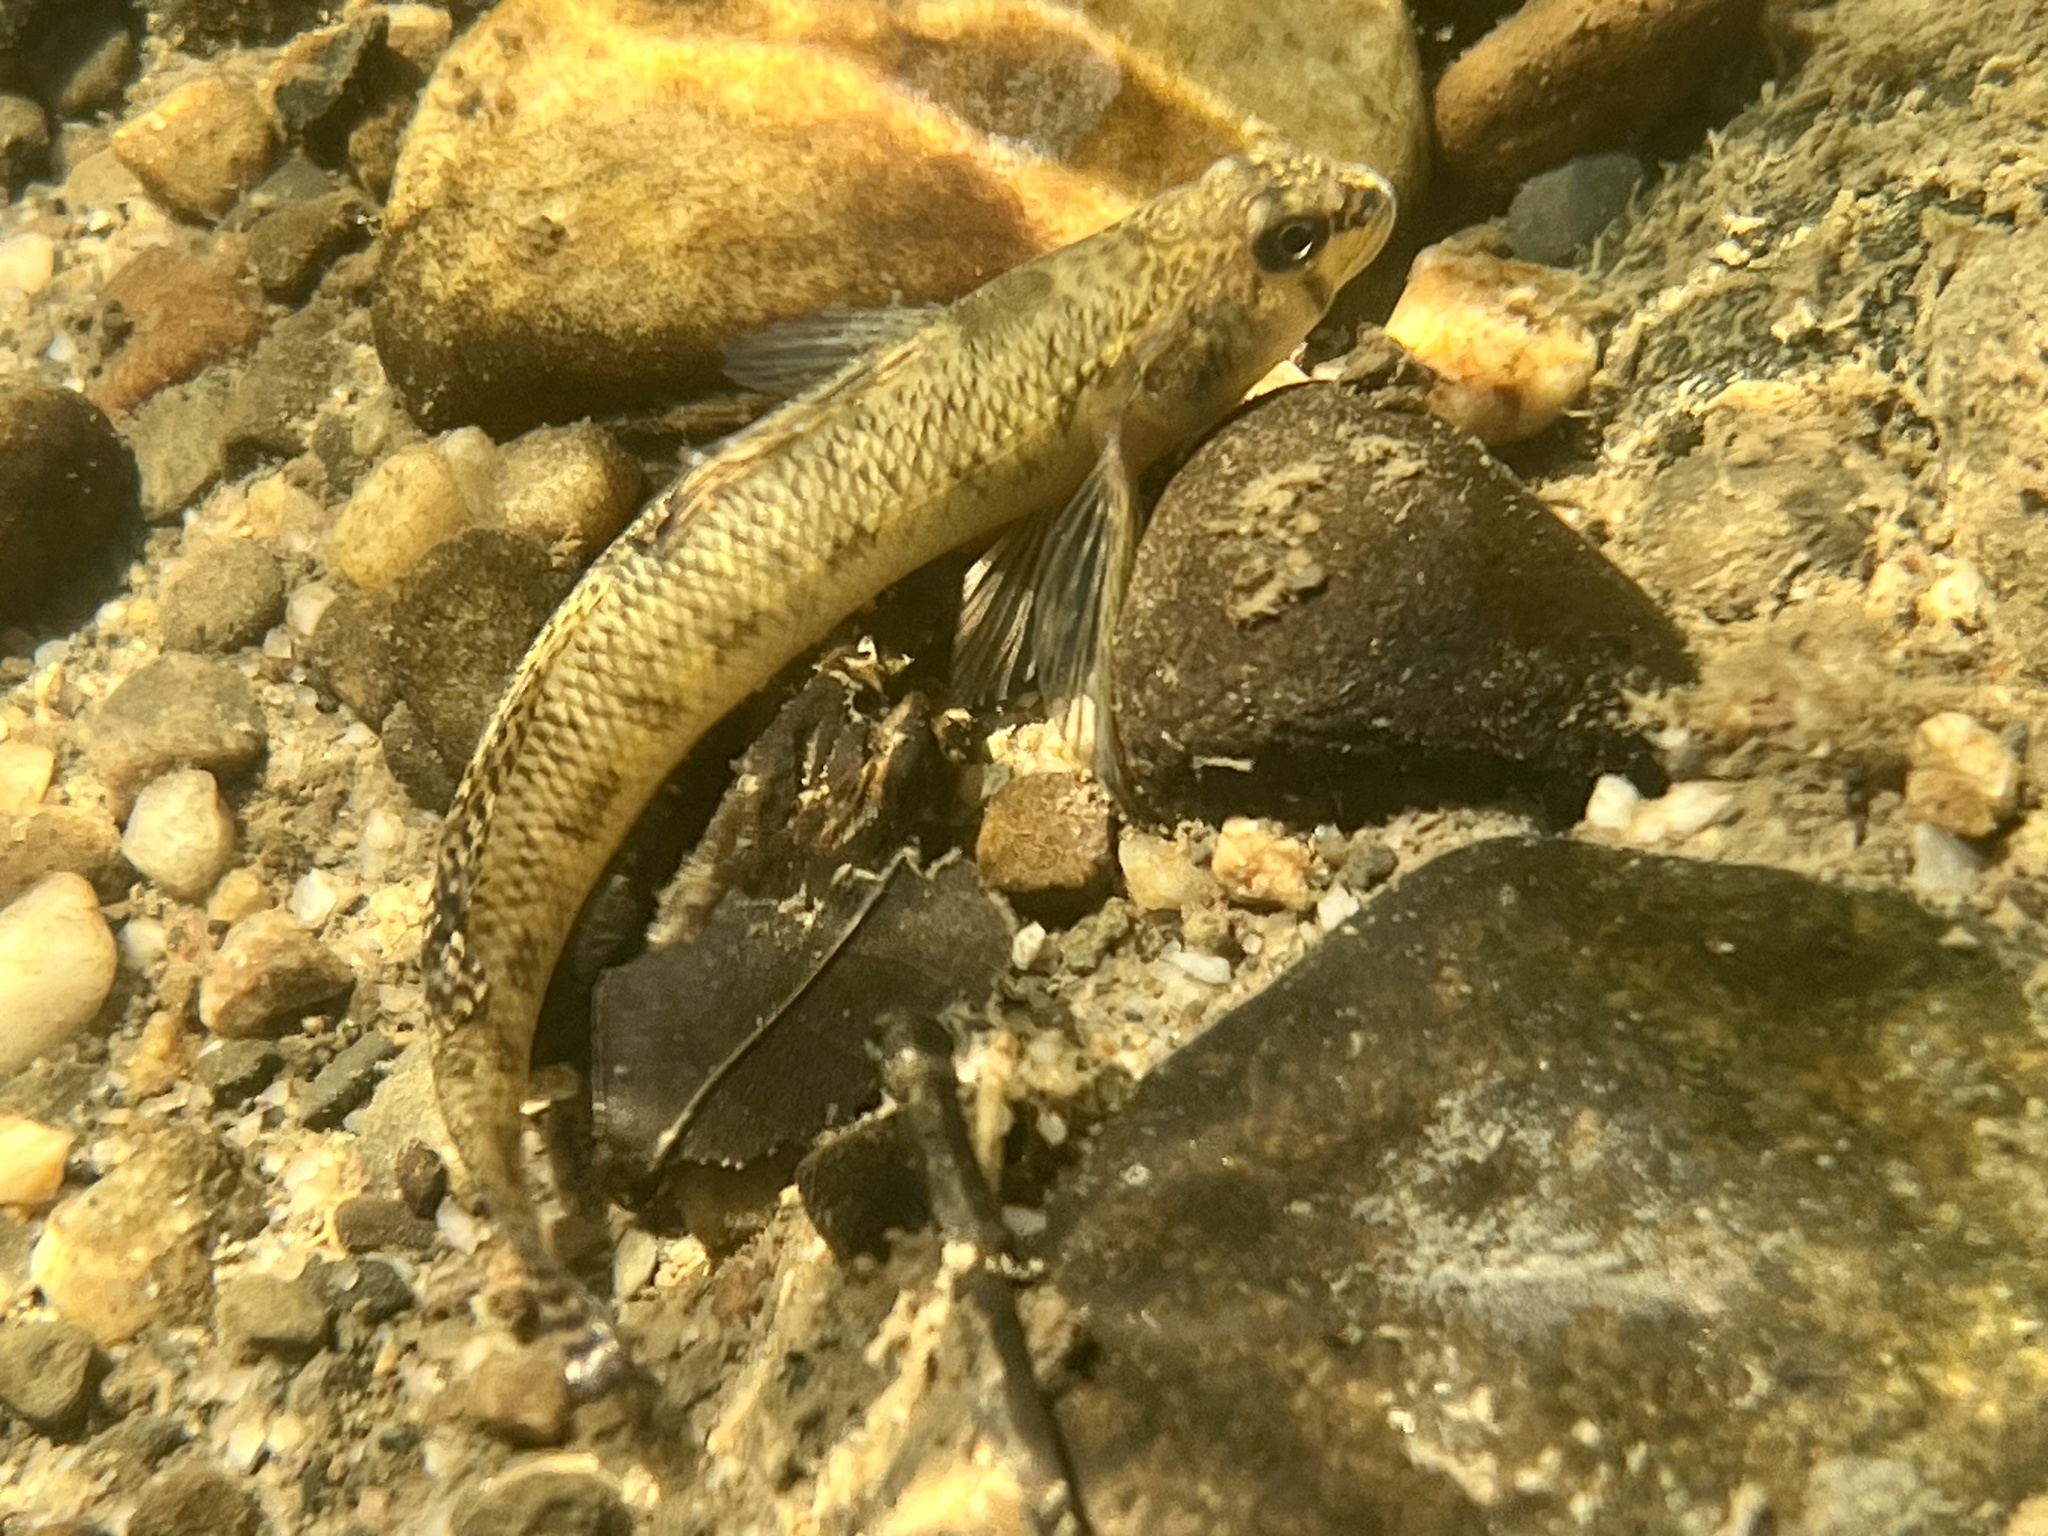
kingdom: Animalia
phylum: Chordata
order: Perciformes
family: Percidae
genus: Etheostoma
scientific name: Etheostoma olmstedi
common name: Tessellated darter
